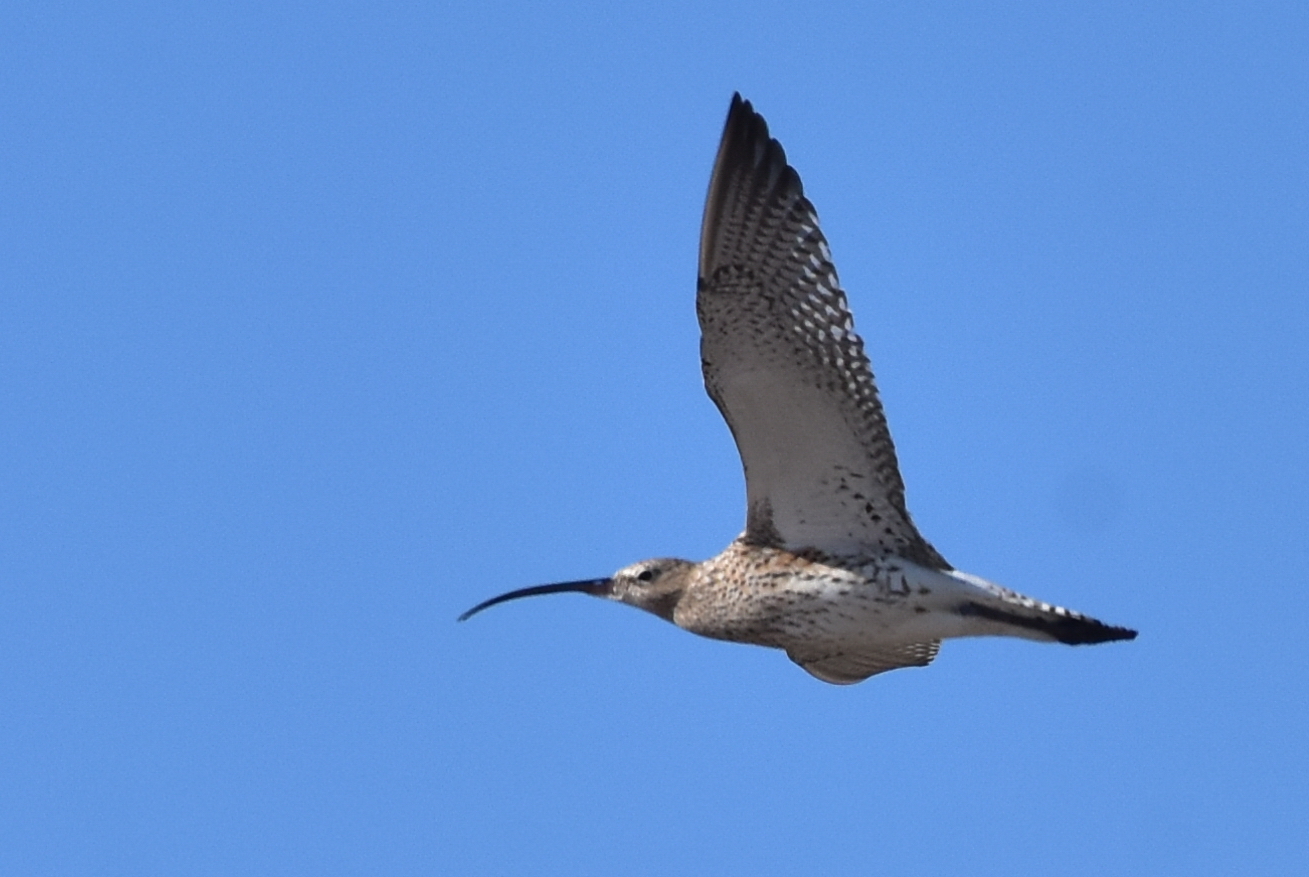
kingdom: Animalia
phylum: Chordata
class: Aves
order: Charadriiformes
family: Scolopacidae
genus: Numenius
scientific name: Numenius arquata
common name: Eurasian curlew
